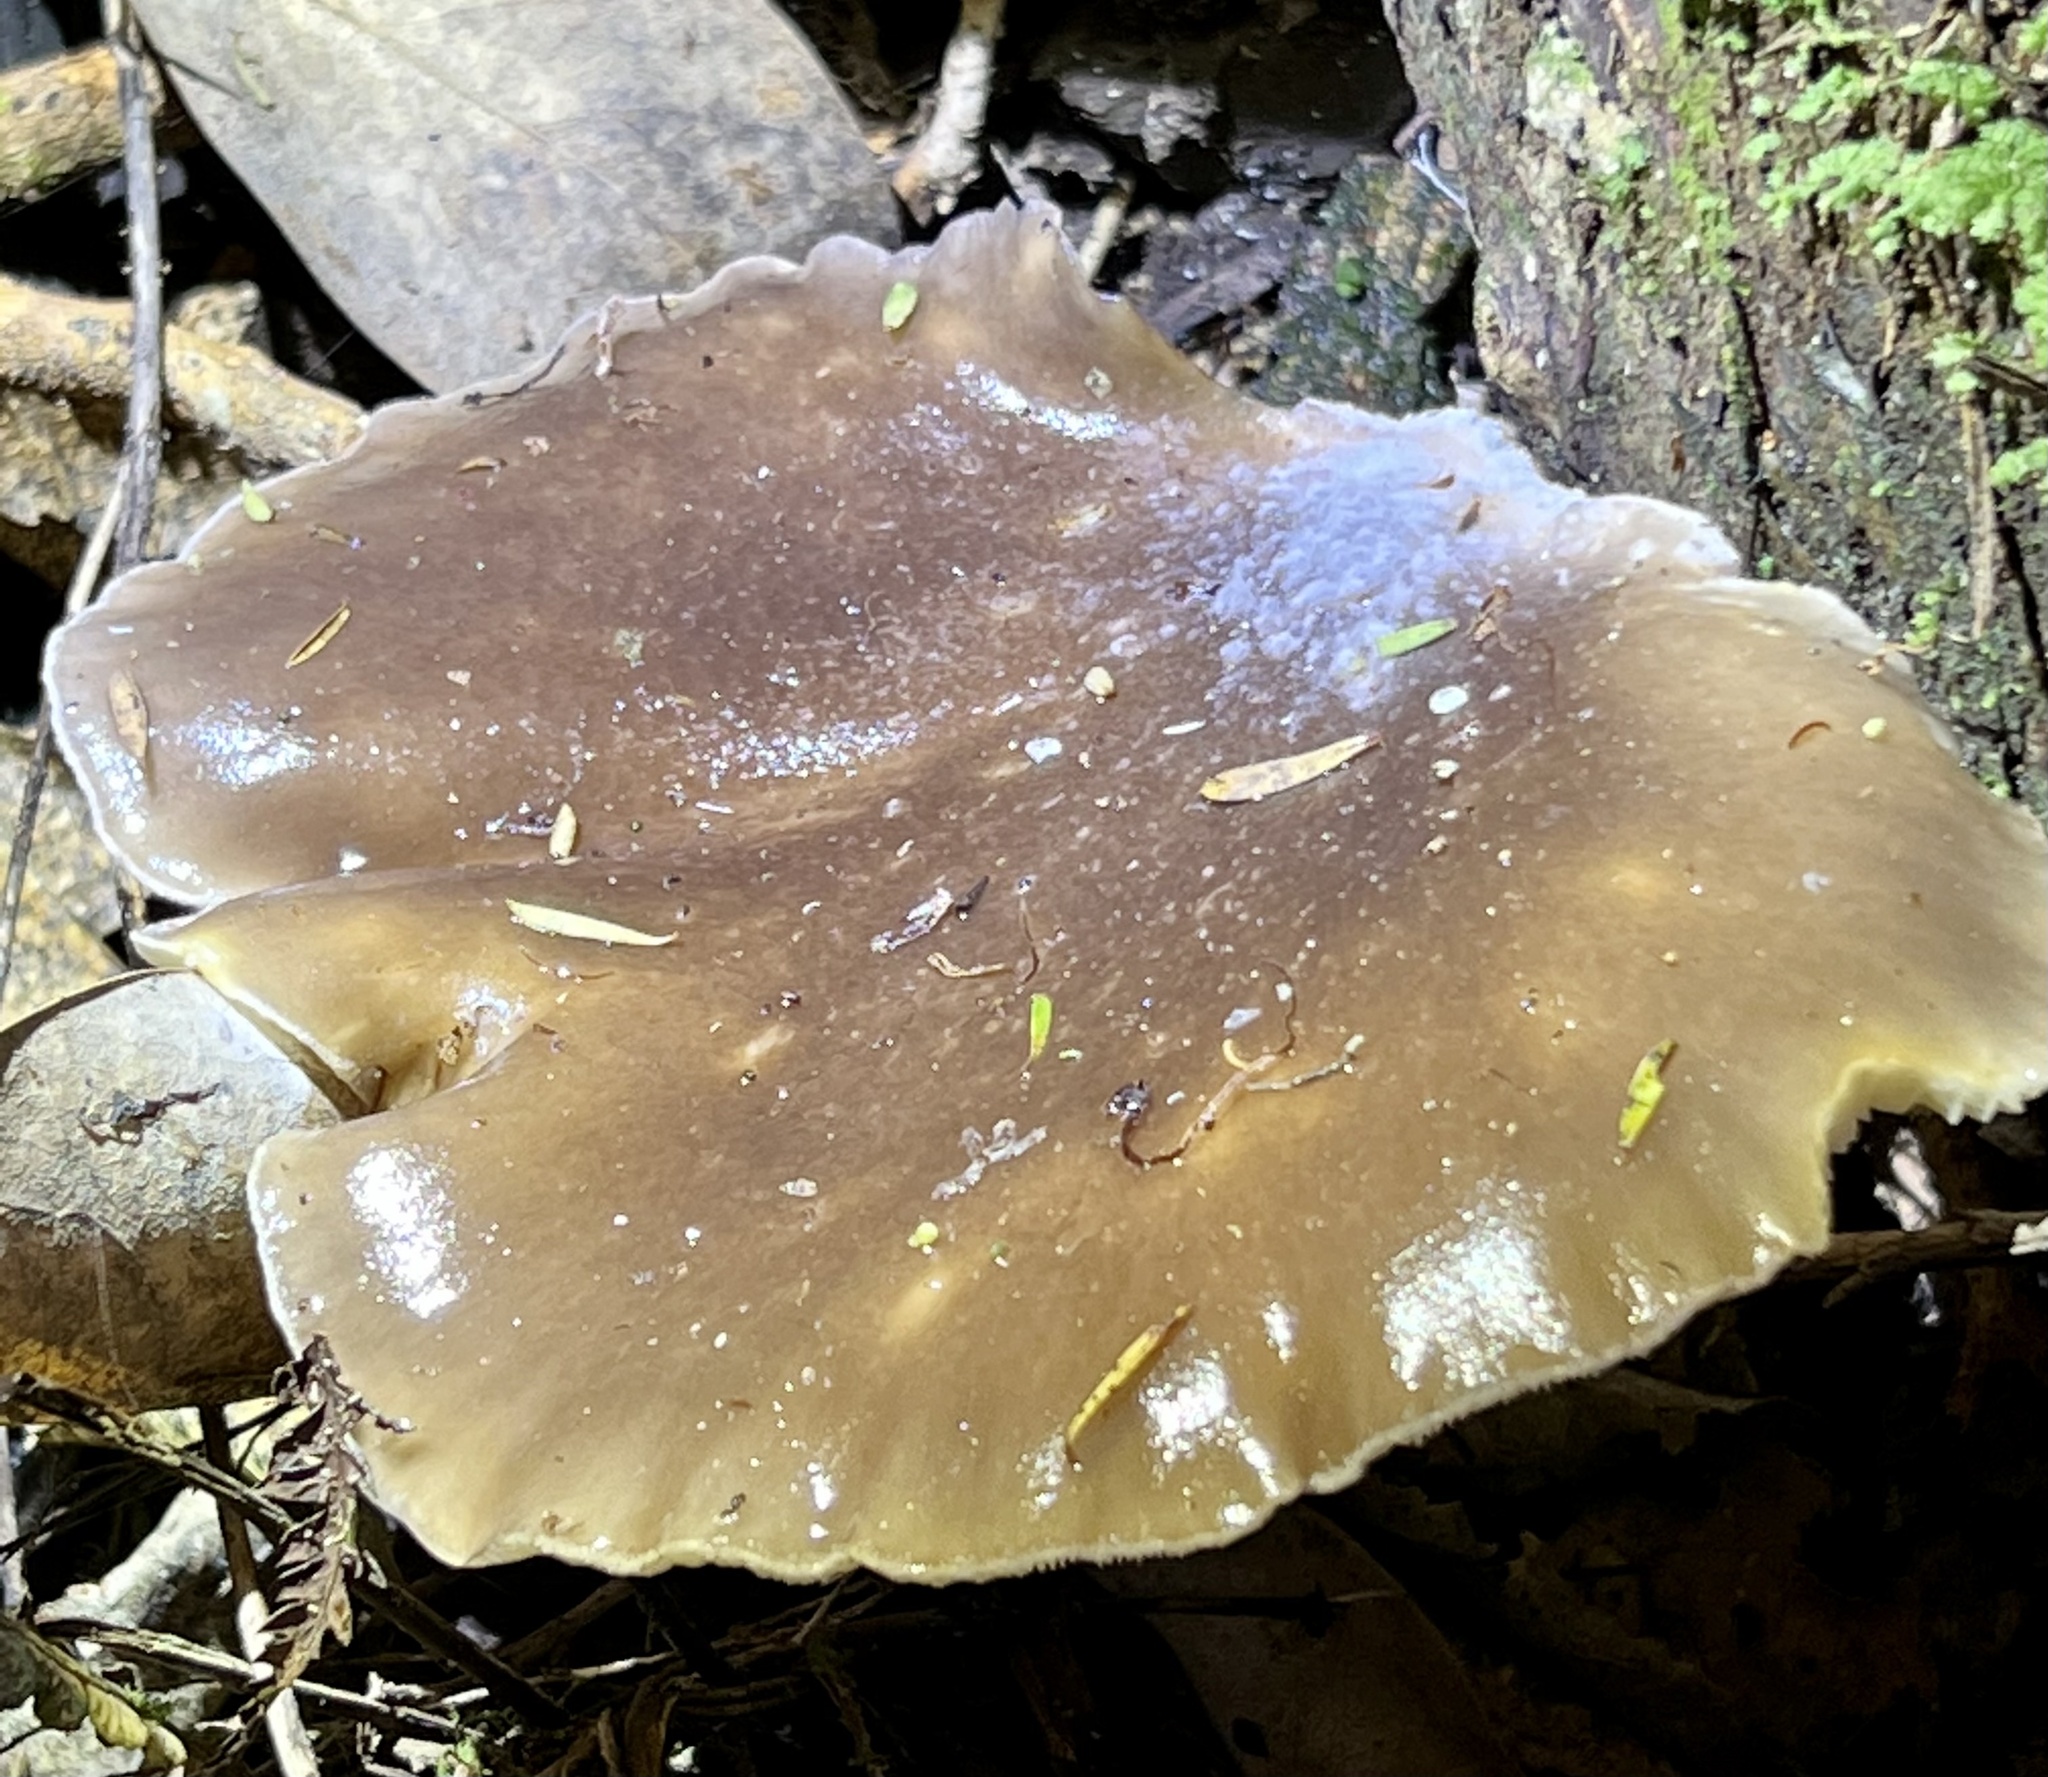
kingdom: Fungi
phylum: Basidiomycota
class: Agaricomycetes
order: Agaricales
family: Pleurotaceae
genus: Pleurotus
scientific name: Pleurotus australis
